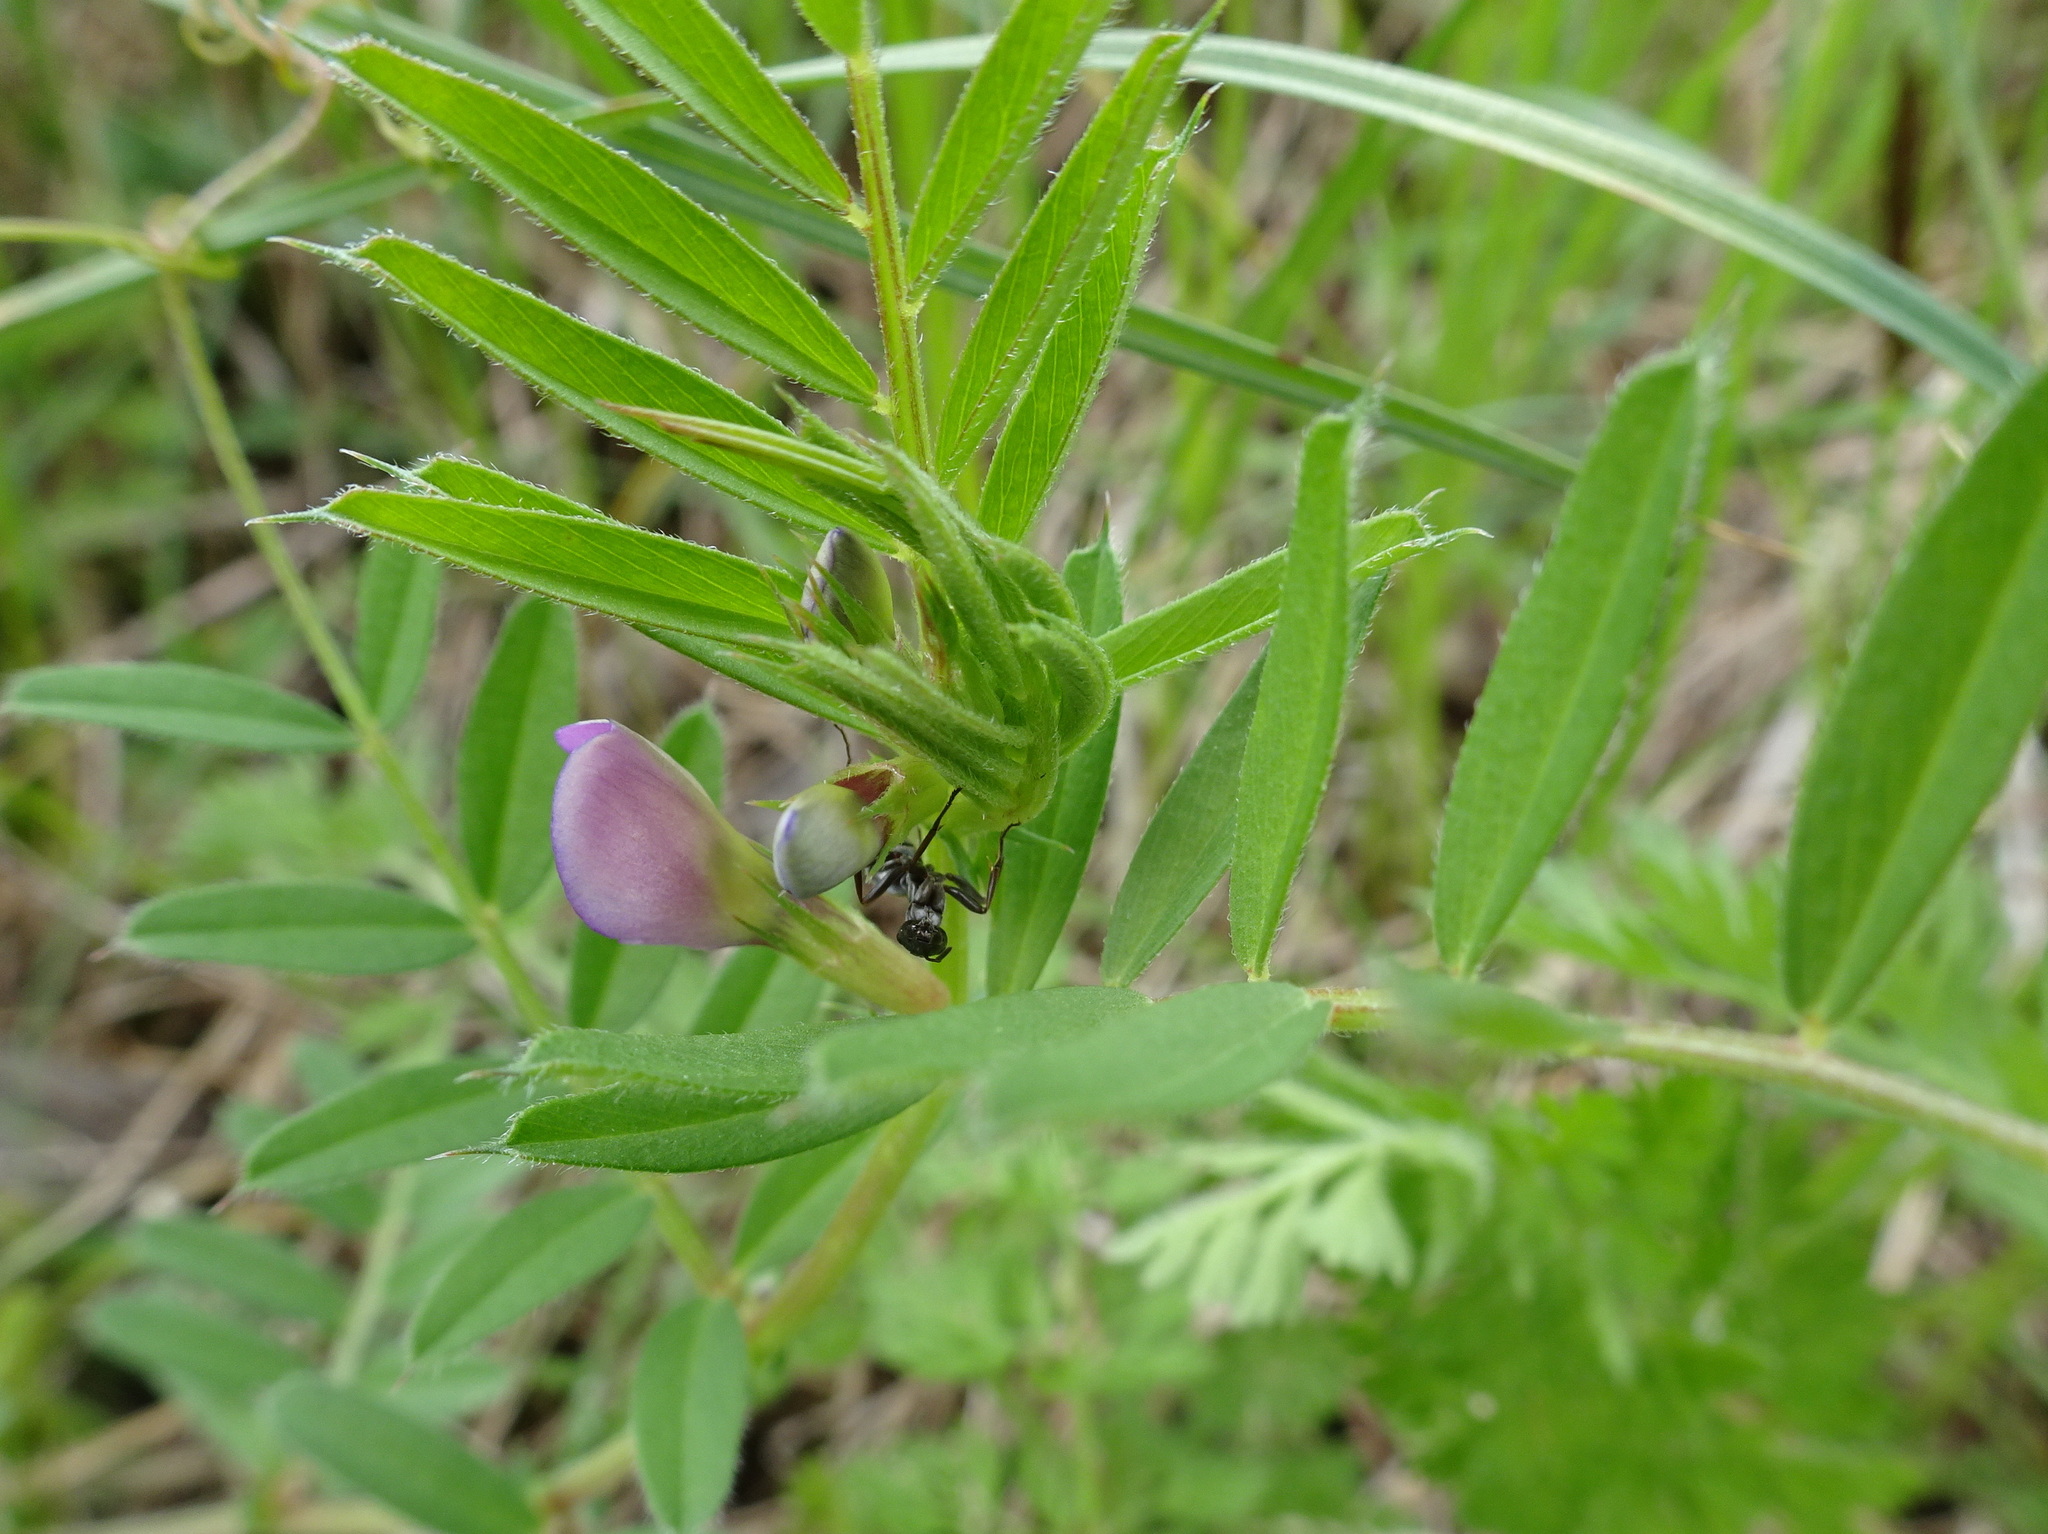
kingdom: Plantae
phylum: Tracheophyta
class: Magnoliopsida
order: Fabales
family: Fabaceae
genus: Vicia
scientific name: Vicia sativa
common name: Garden vetch
